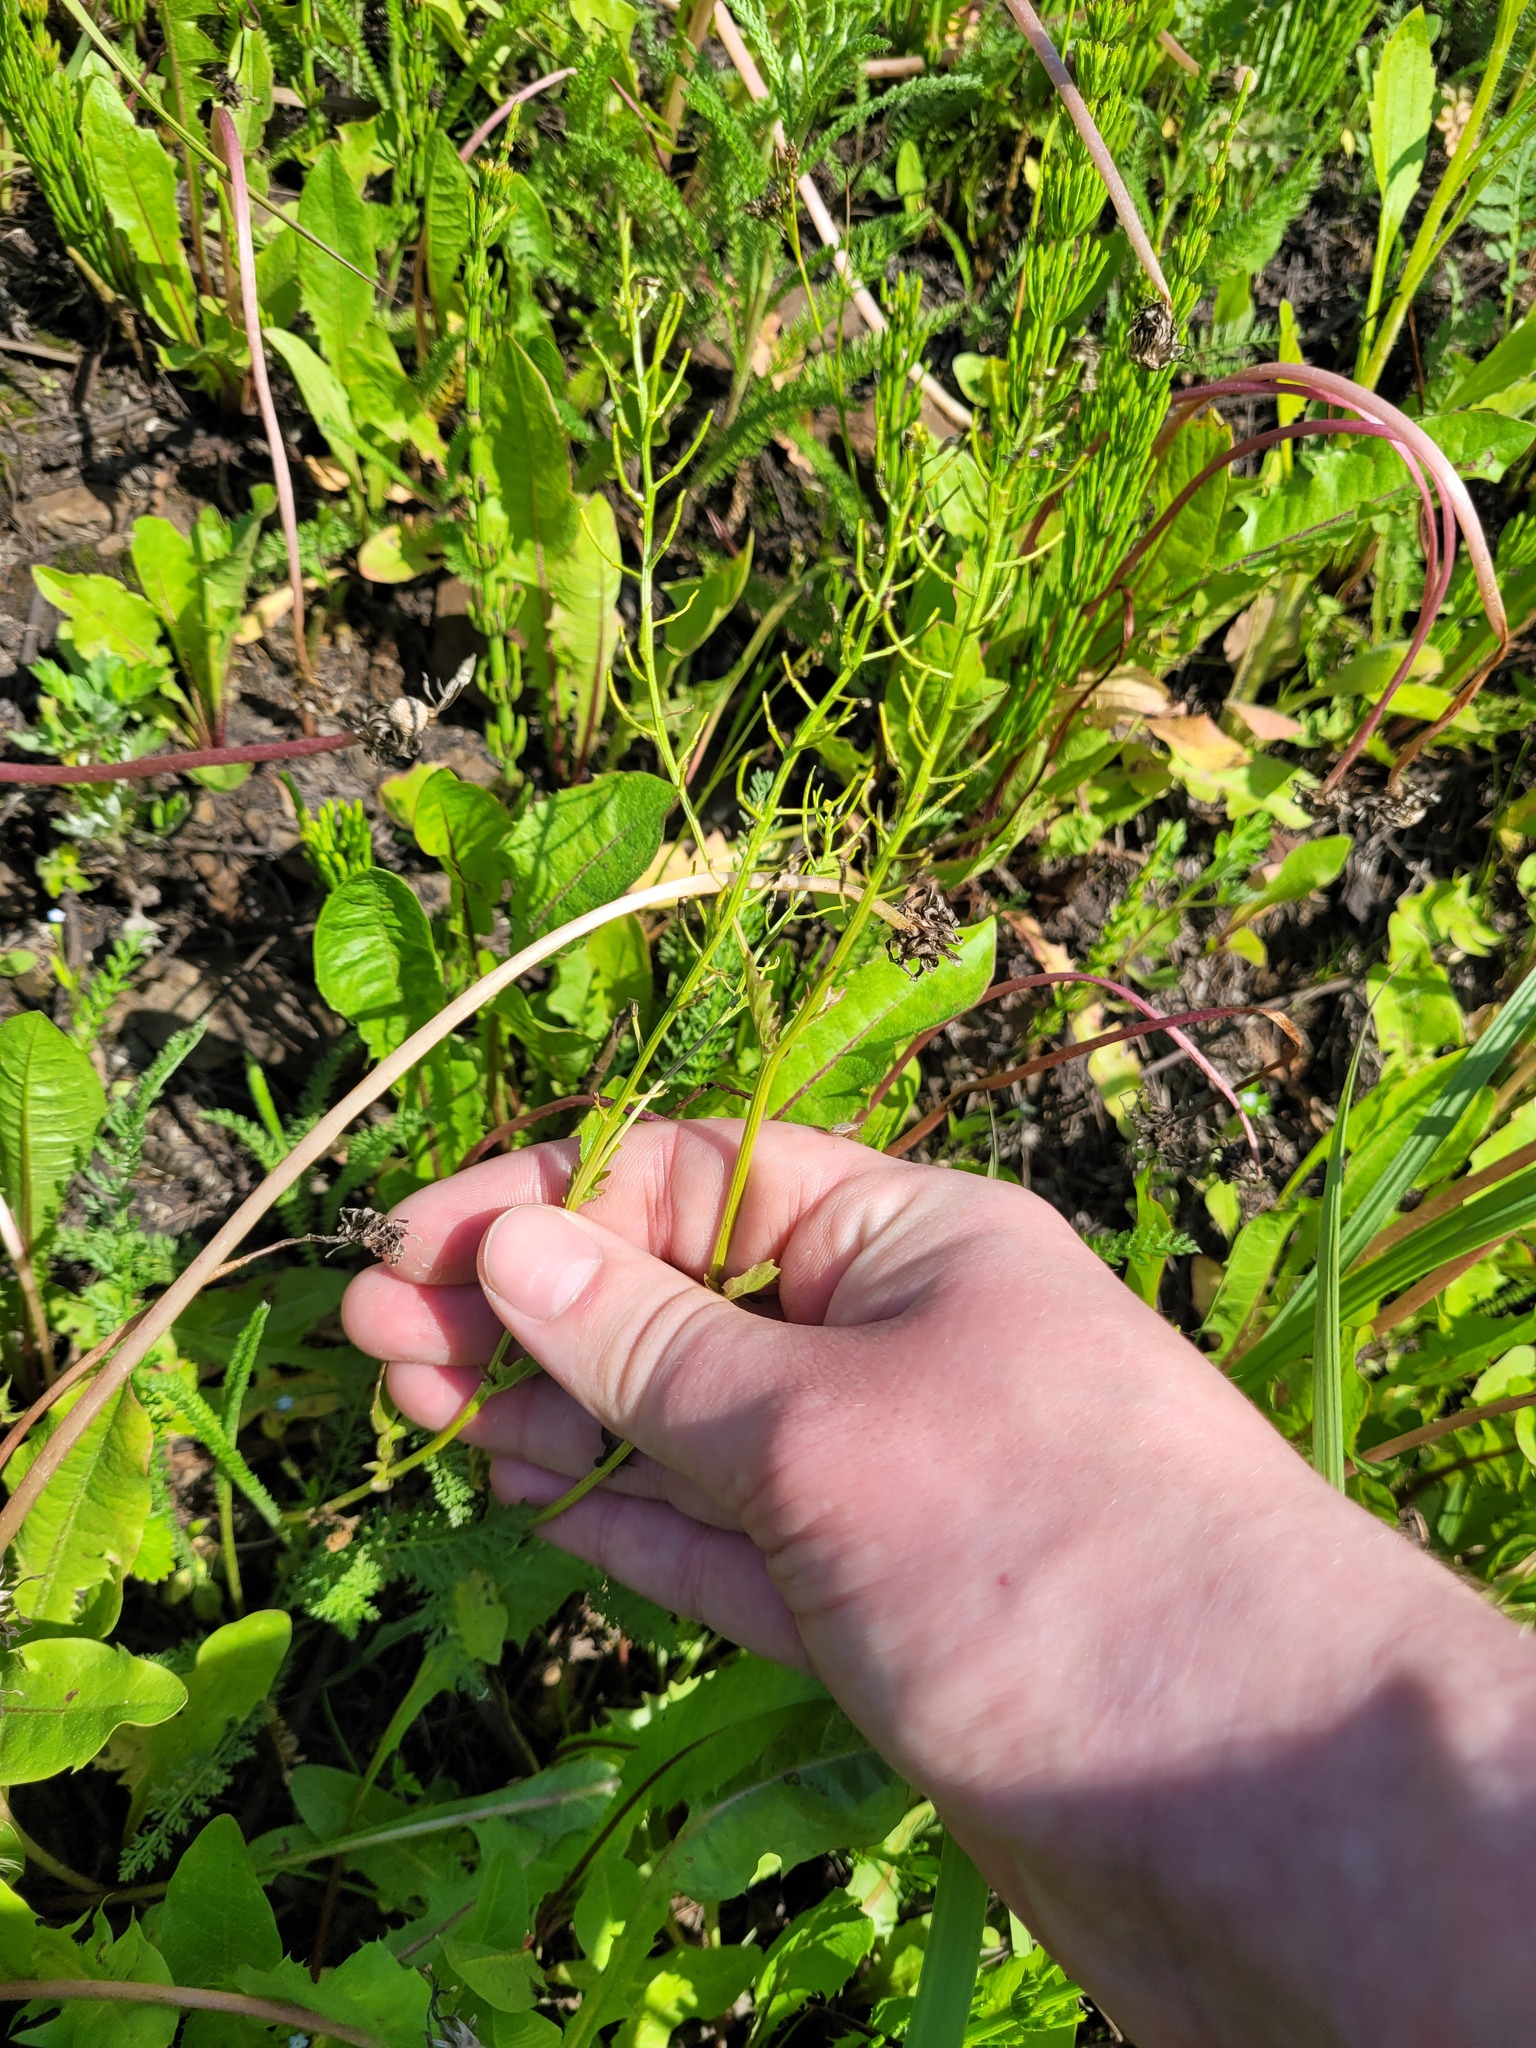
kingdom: Plantae
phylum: Tracheophyta
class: Magnoliopsida
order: Brassicales
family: Brassicaceae
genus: Barbarea
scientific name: Barbarea vulgaris
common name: Cressy-greens
